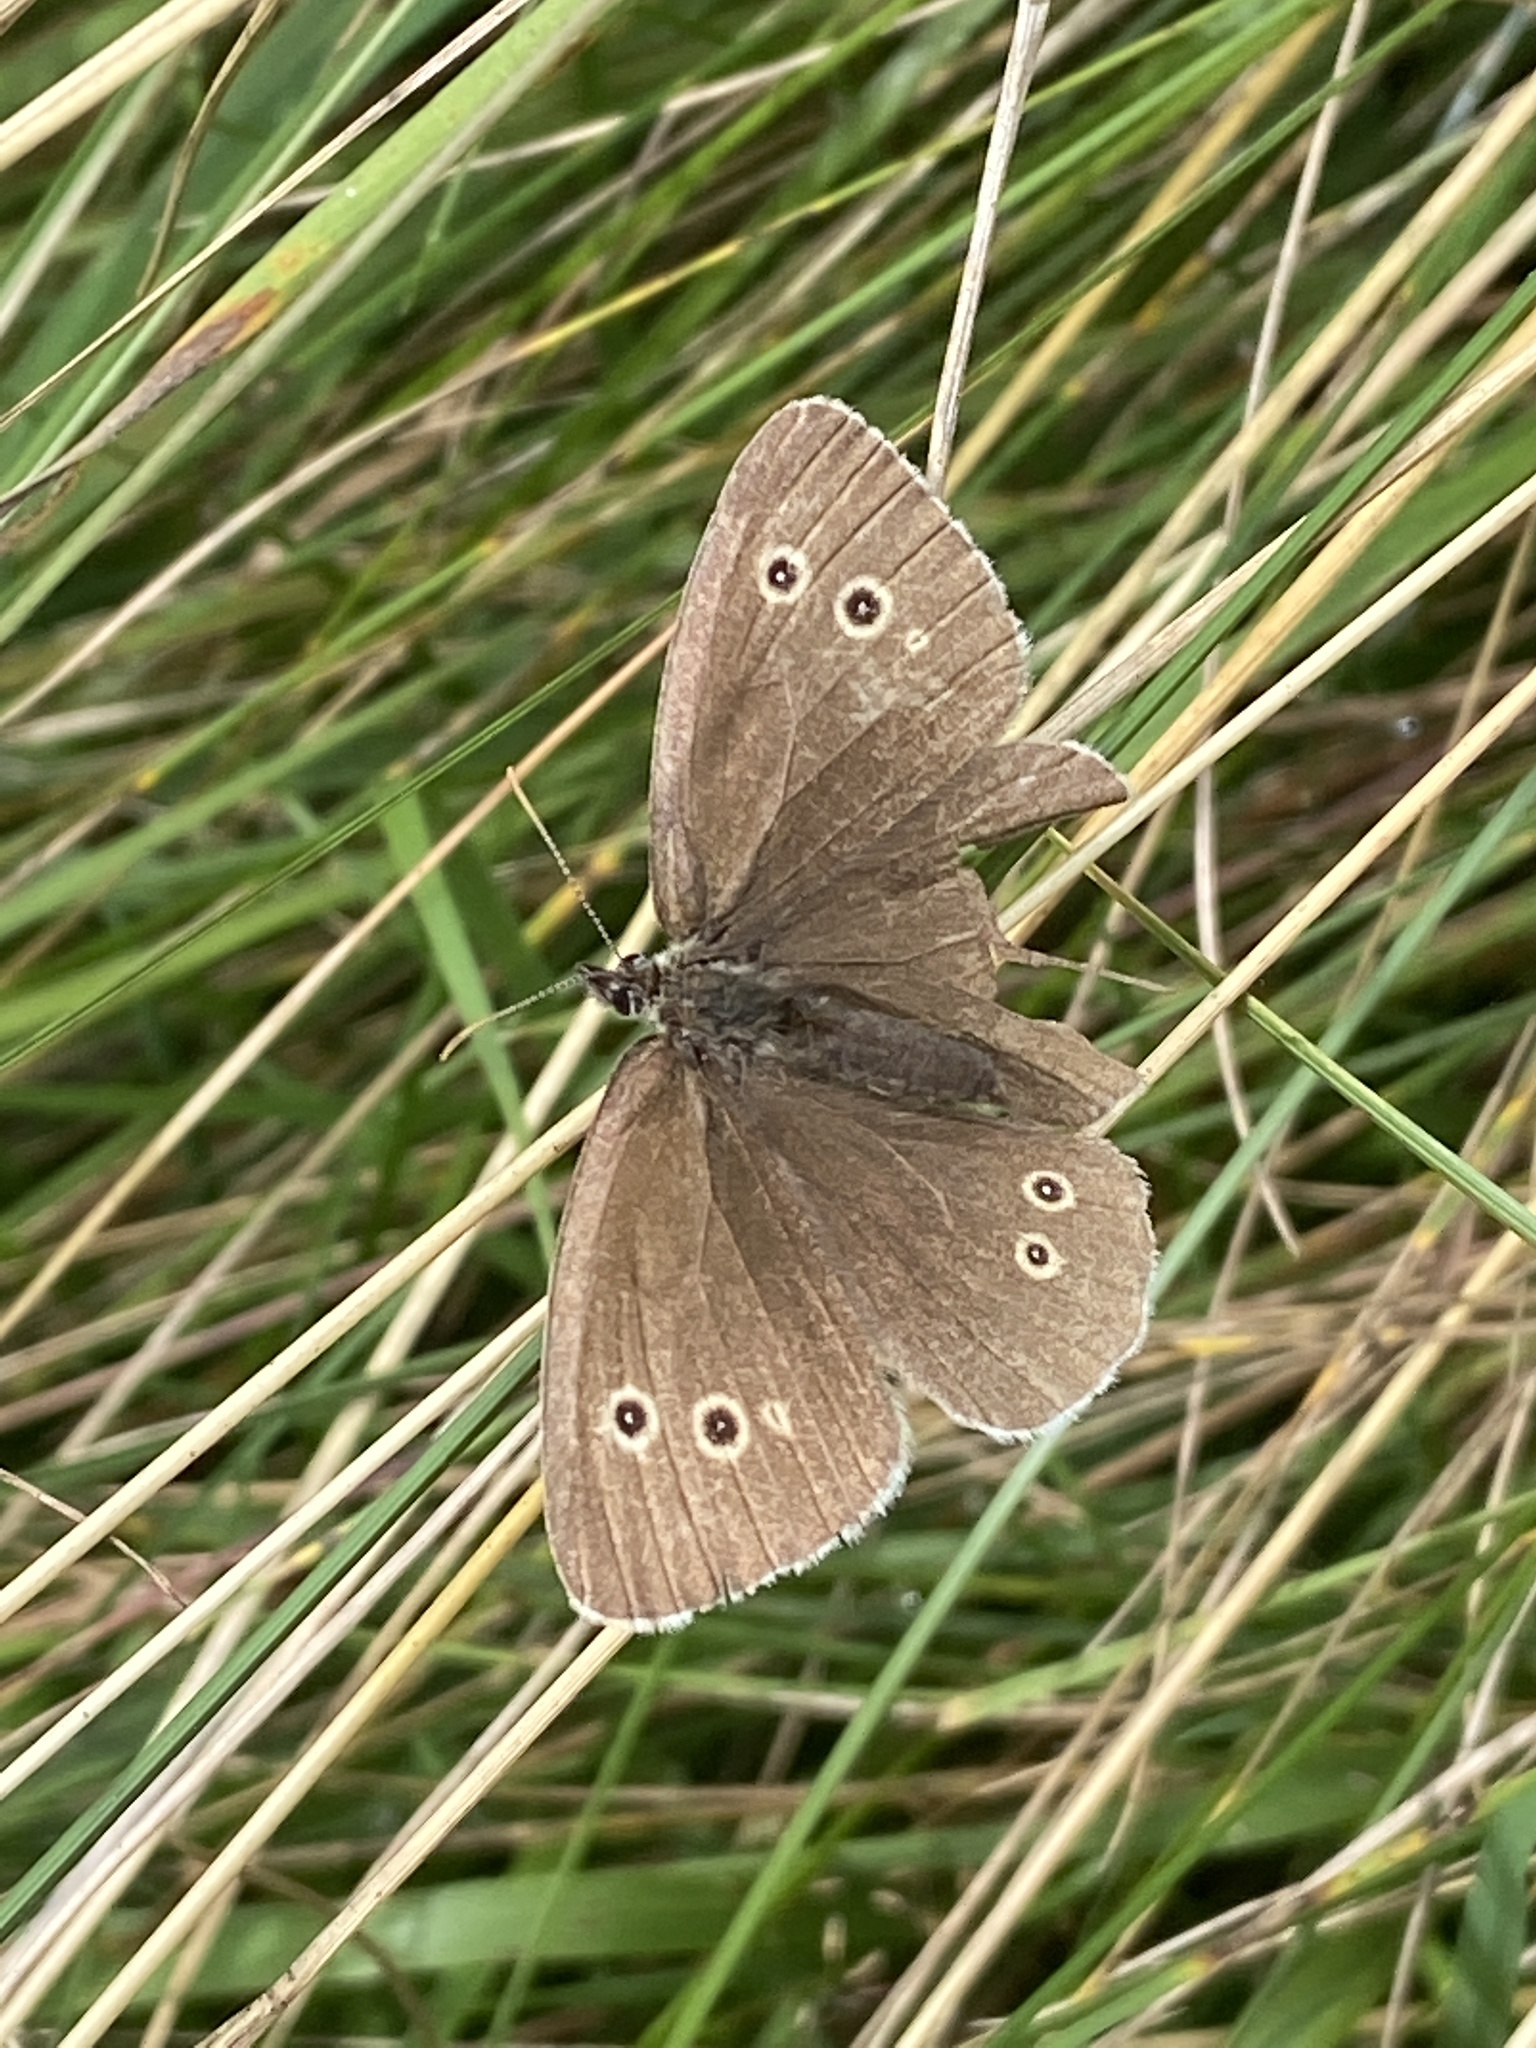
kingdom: Animalia
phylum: Arthropoda
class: Insecta
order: Lepidoptera
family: Nymphalidae
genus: Aphantopus
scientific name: Aphantopus hyperantus
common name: Ringlet
